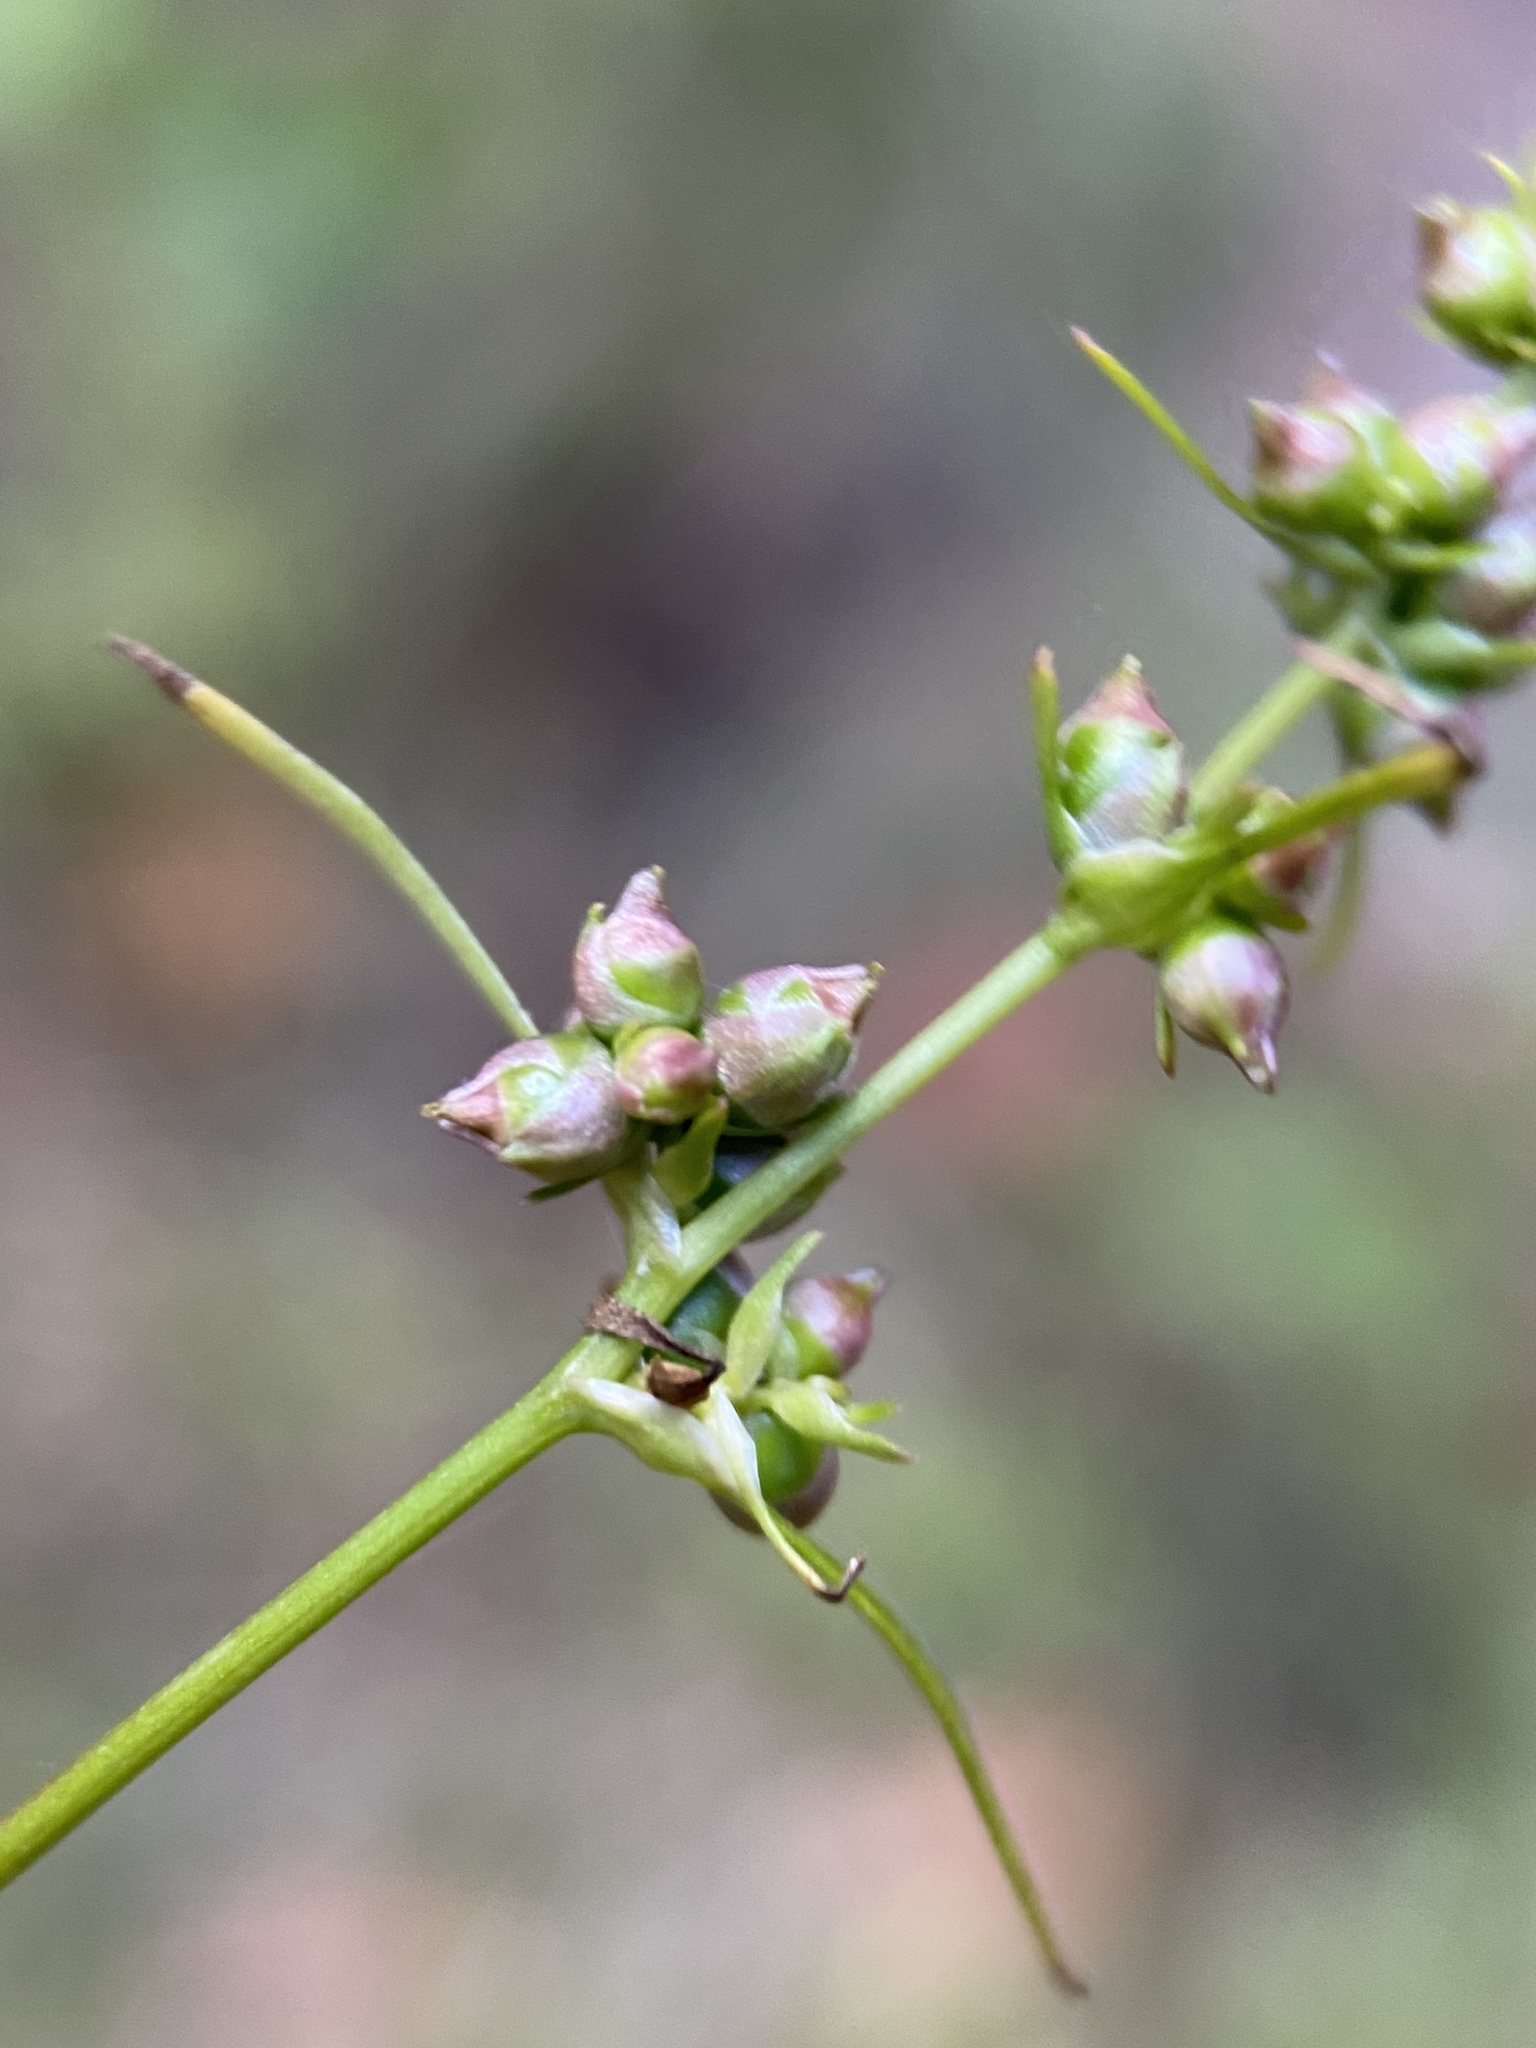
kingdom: Plantae
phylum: Tracheophyta
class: Magnoliopsida
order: Apiales
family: Apiaceae
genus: Cicuta
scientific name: Cicuta bulbifera
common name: Bulb-bearing water-hemlock
